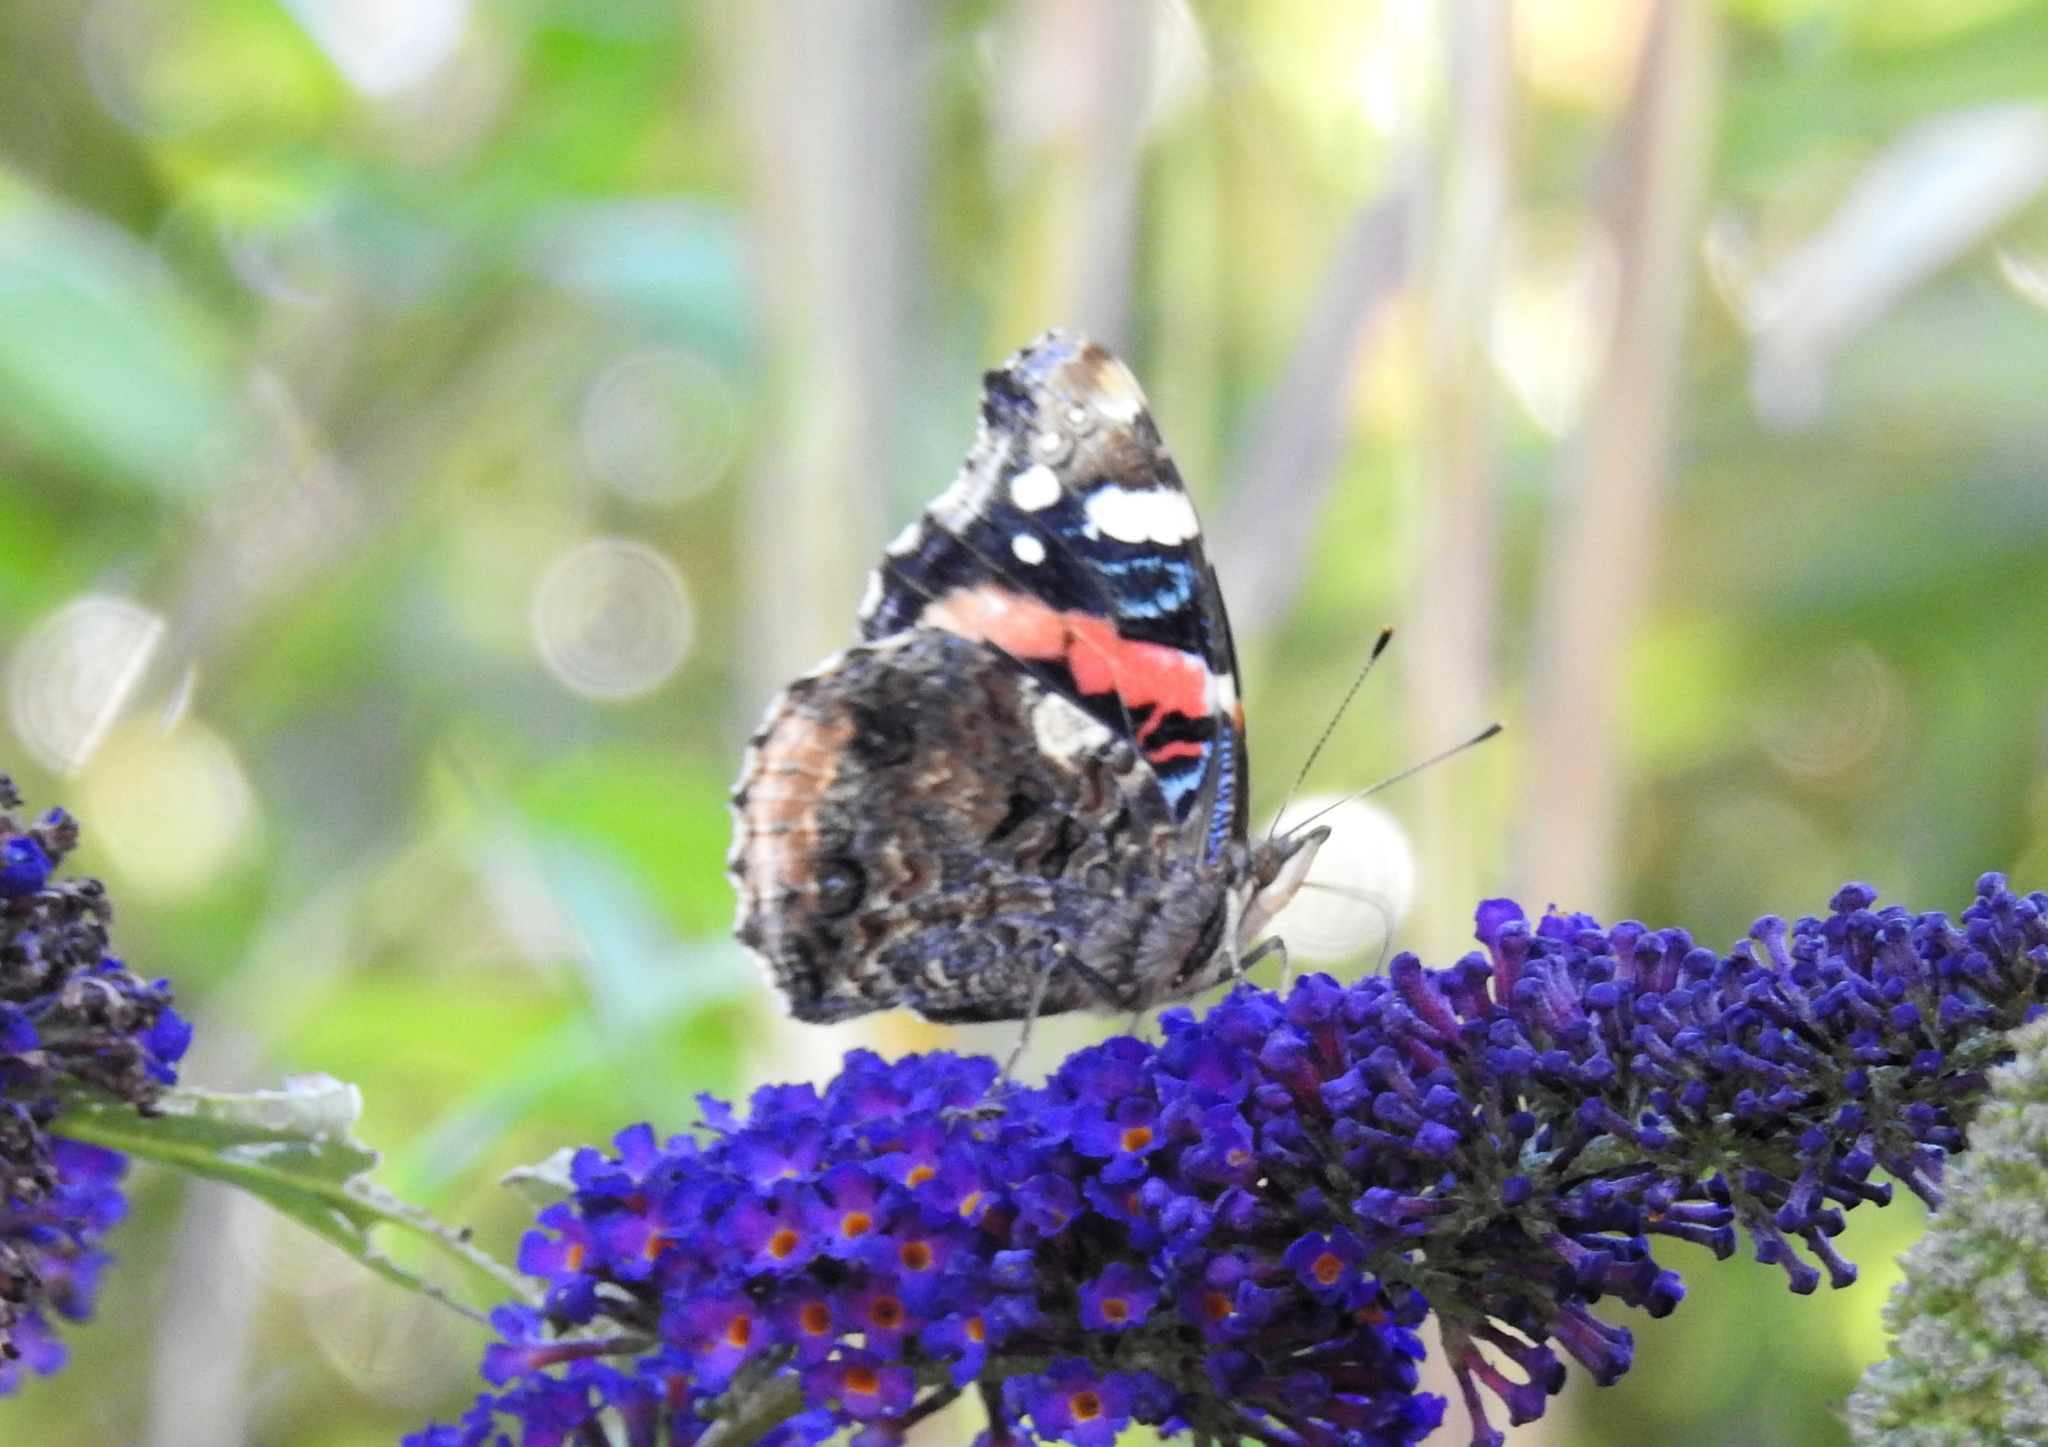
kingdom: Animalia
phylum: Arthropoda
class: Insecta
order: Lepidoptera
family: Nymphalidae
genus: Vanessa
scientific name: Vanessa atalanta
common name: Red admiral
